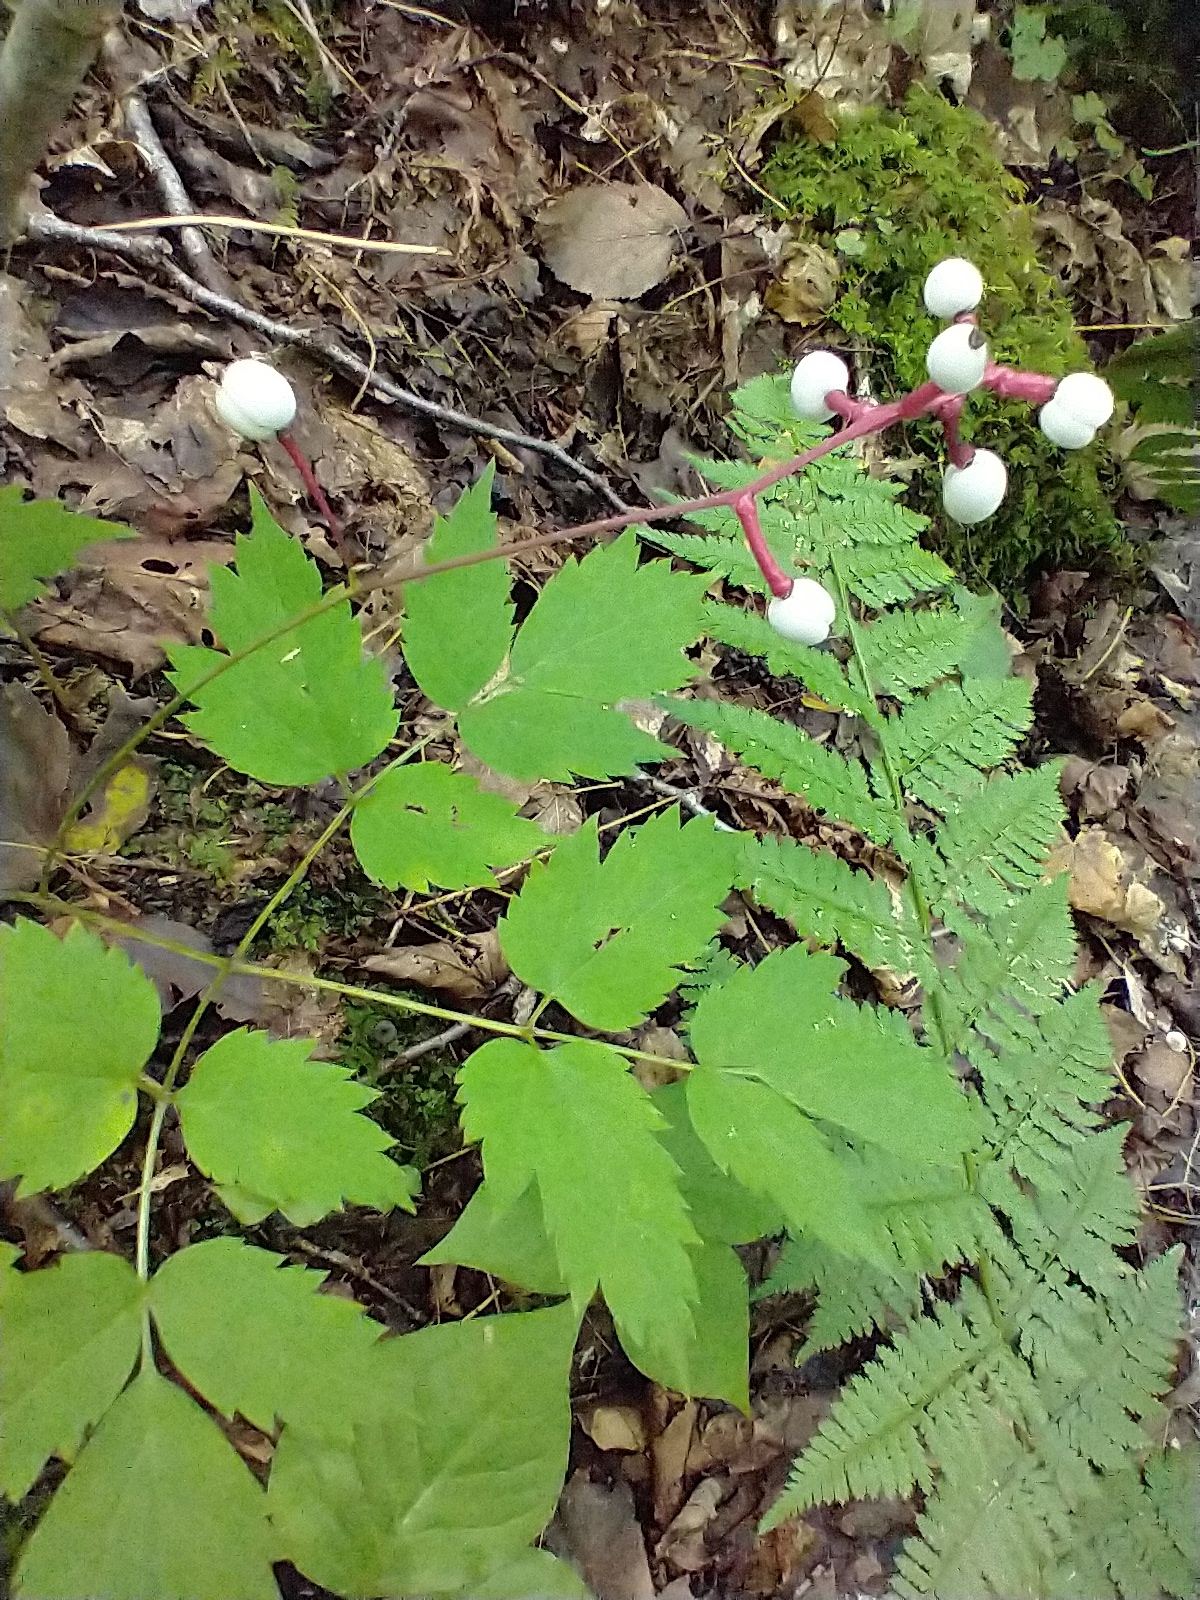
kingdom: Plantae
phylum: Tracheophyta
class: Magnoliopsida
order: Ranunculales
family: Ranunculaceae
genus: Actaea
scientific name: Actaea pachypoda
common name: Doll's-eyes
